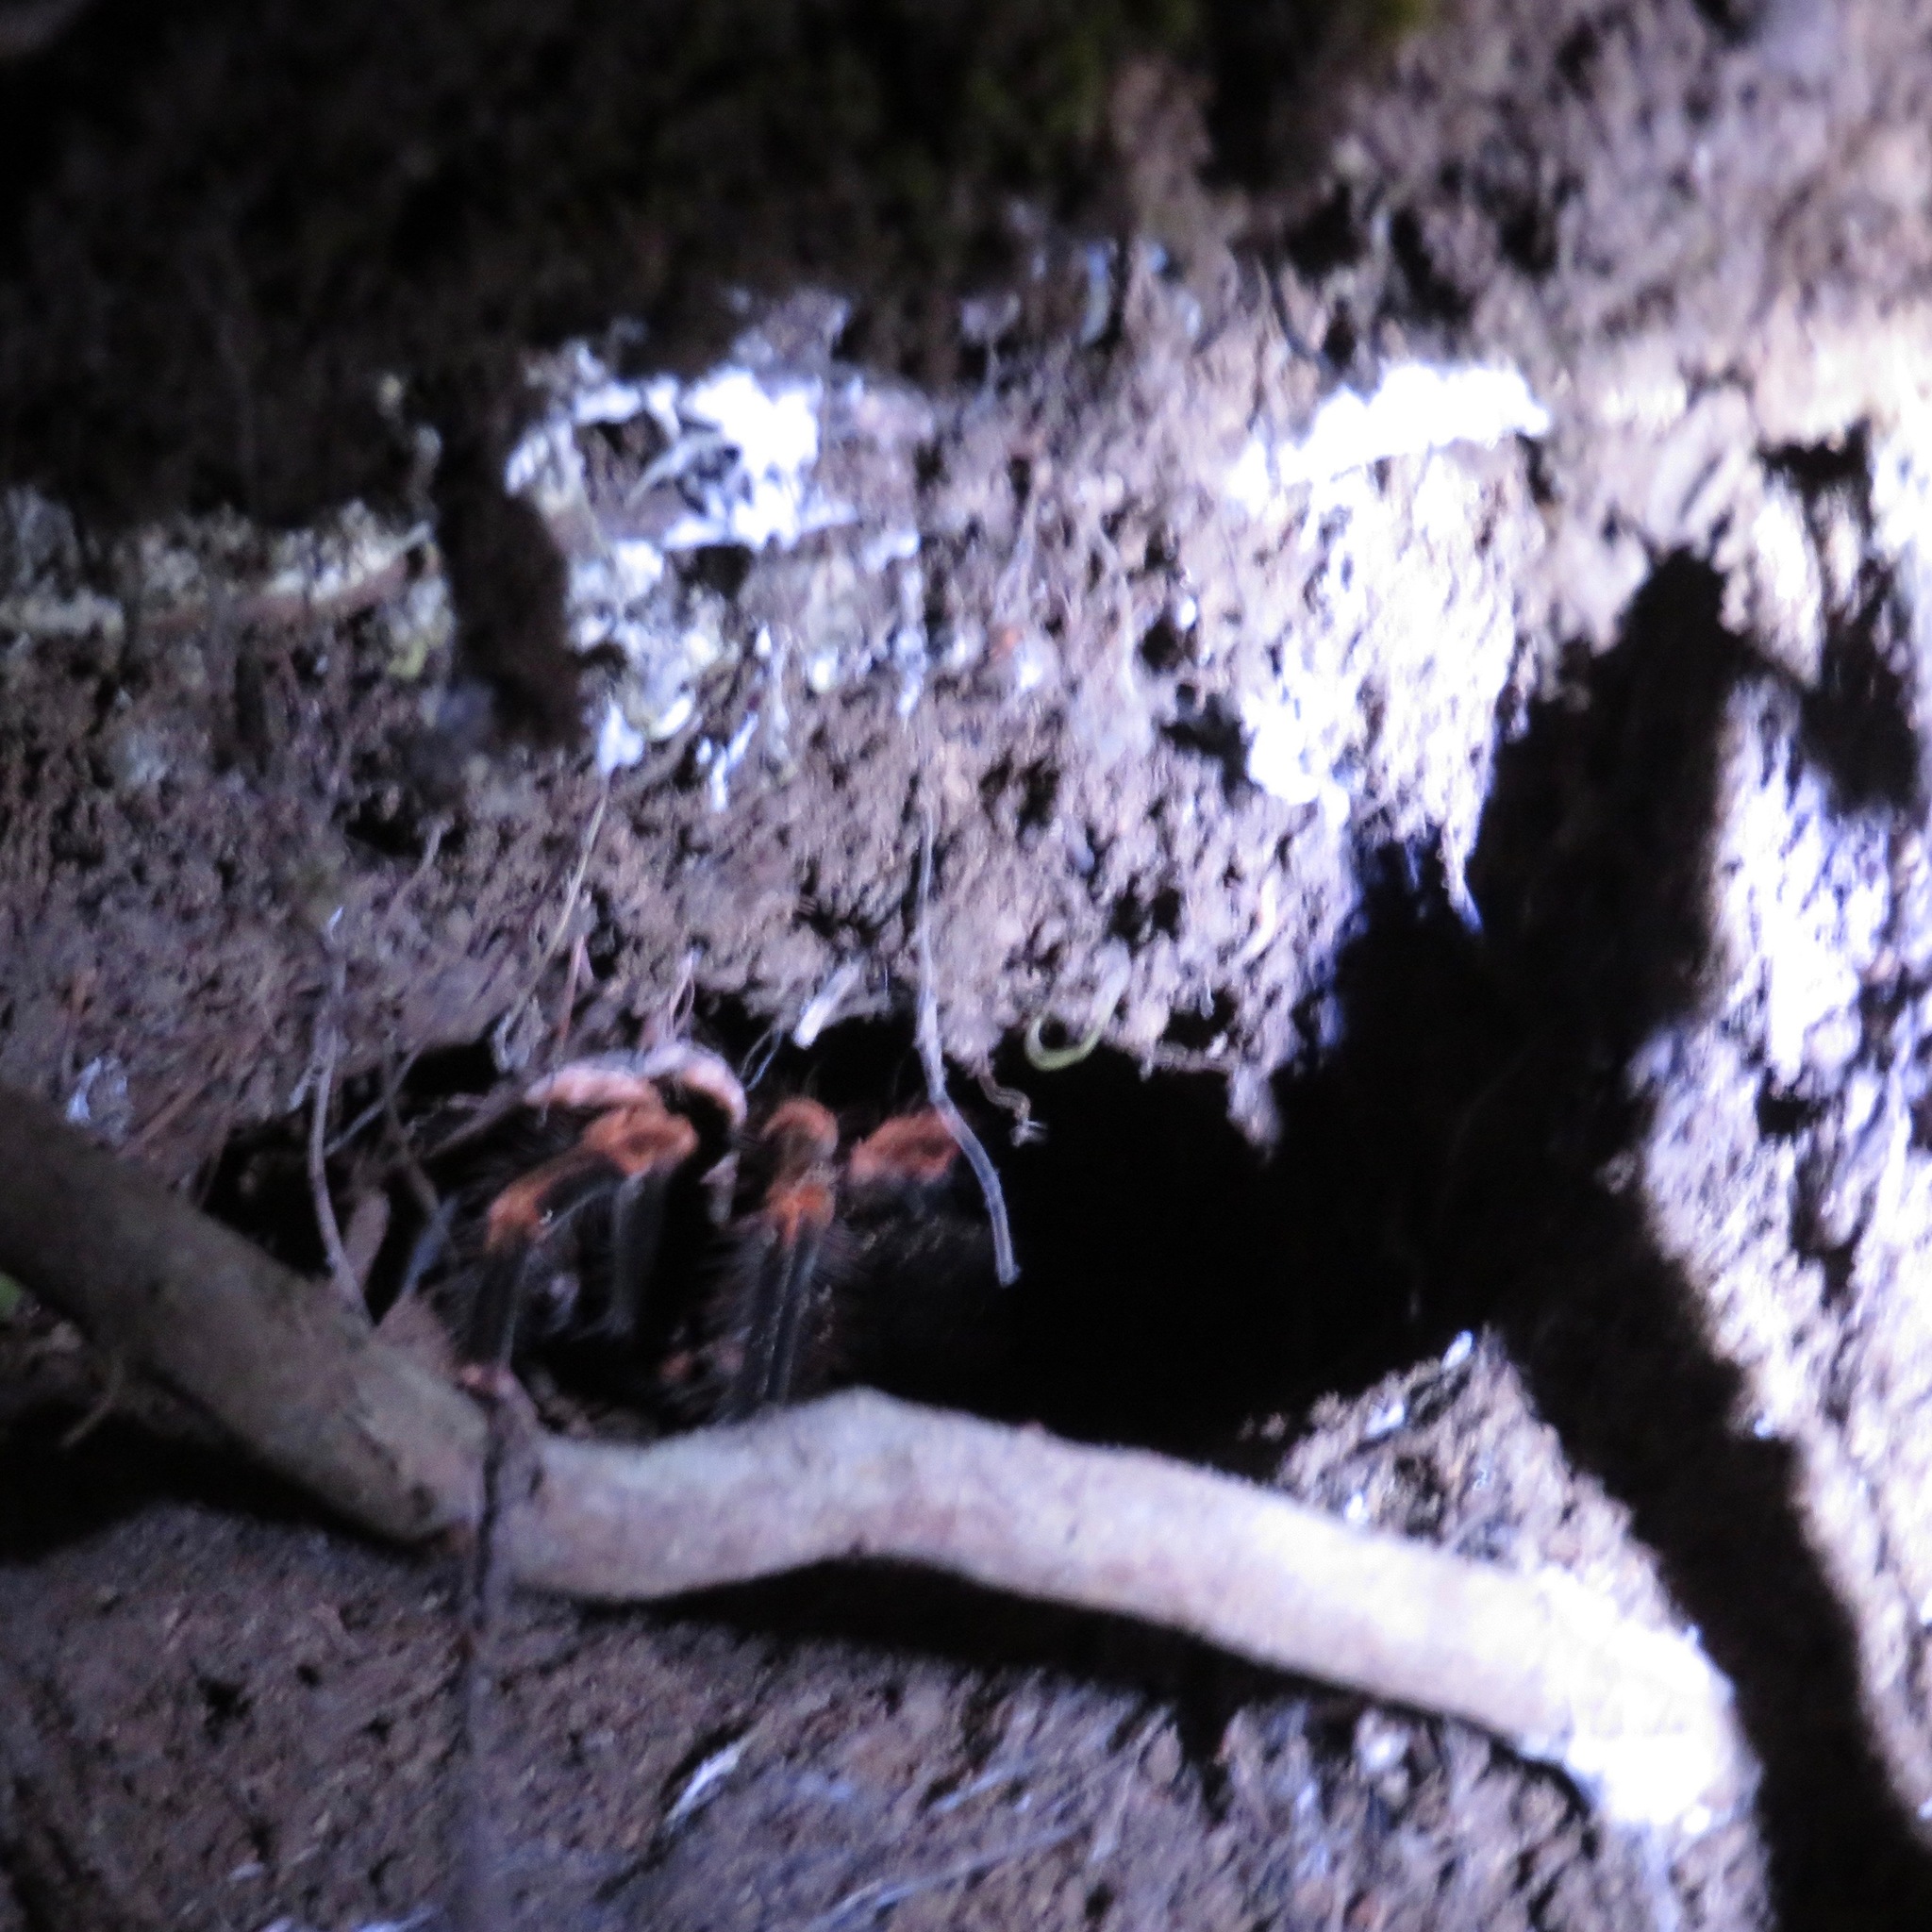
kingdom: Animalia
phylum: Arthropoda
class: Arachnida
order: Araneae
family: Theraphosidae
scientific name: Theraphosidae
